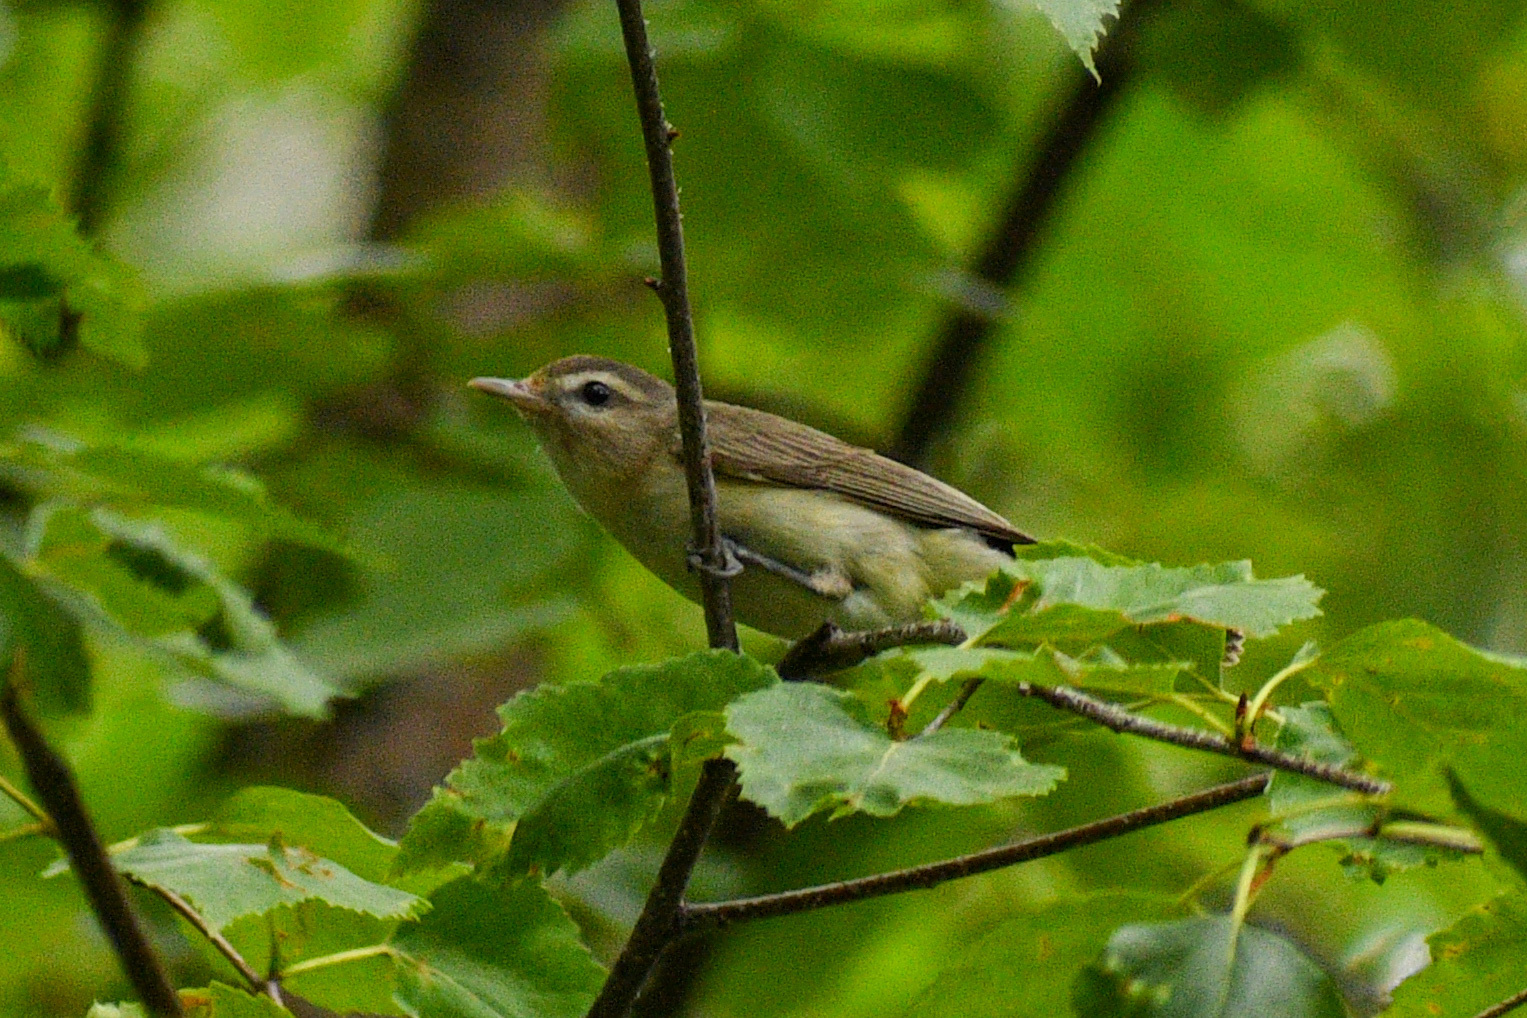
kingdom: Animalia
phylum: Chordata
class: Aves
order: Passeriformes
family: Vireonidae
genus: Vireo
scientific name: Vireo gilvus
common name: Warbling vireo
